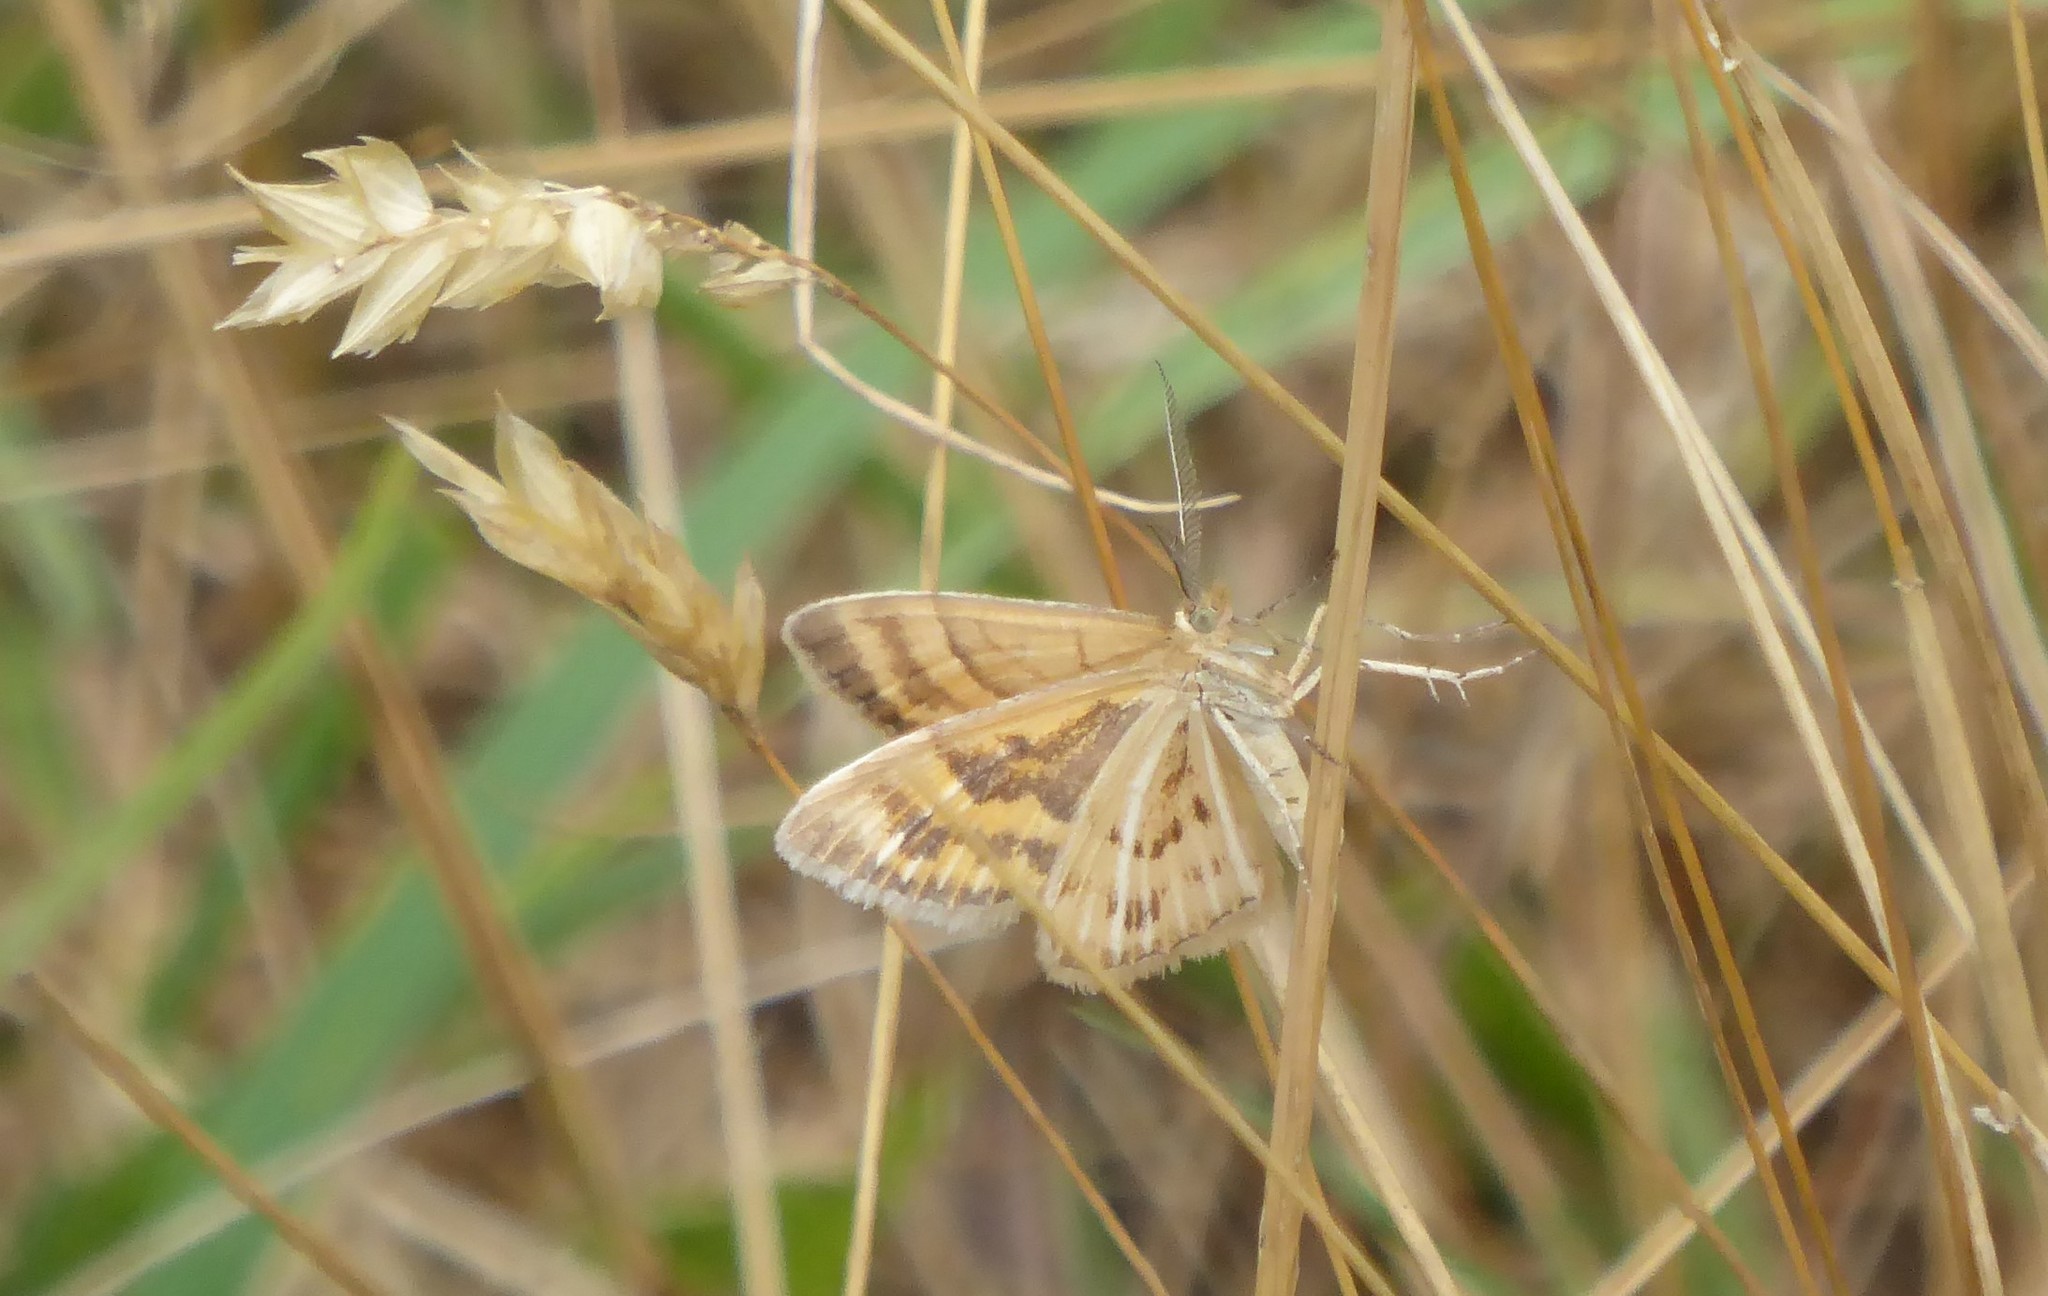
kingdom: Animalia
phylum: Arthropoda
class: Insecta
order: Lepidoptera
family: Geometridae
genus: Asaphodes
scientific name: Asaphodes abrogata
